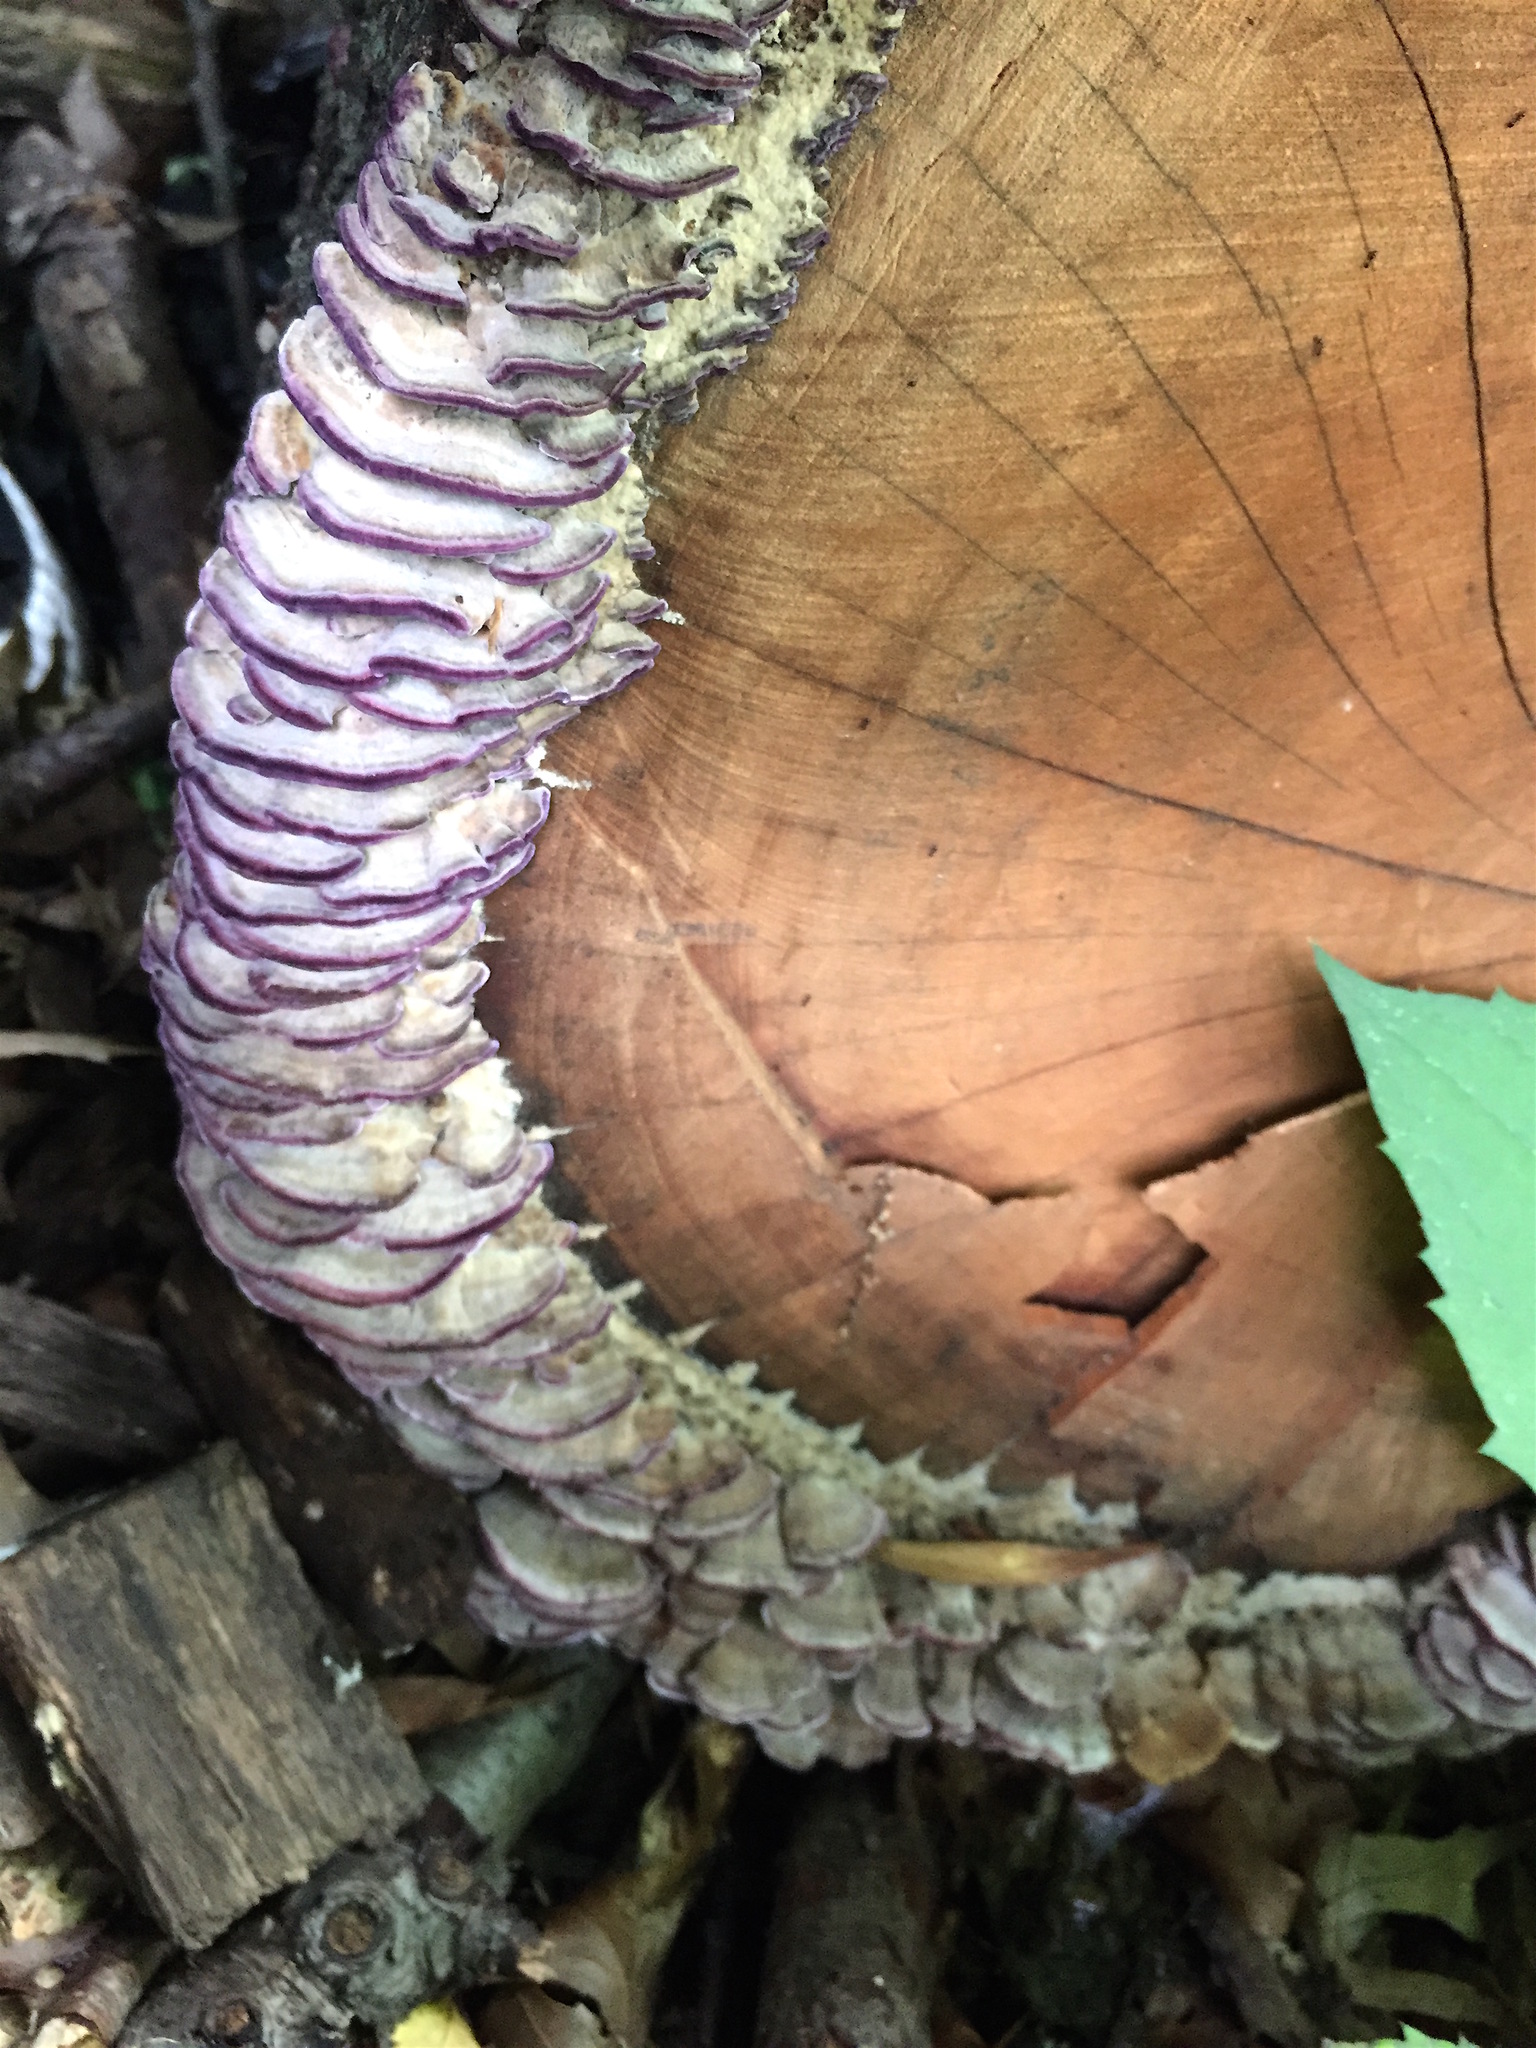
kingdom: Fungi
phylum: Basidiomycota
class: Agaricomycetes
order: Hymenochaetales
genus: Trichaptum
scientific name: Trichaptum biforme
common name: Violet-toothed polypore
